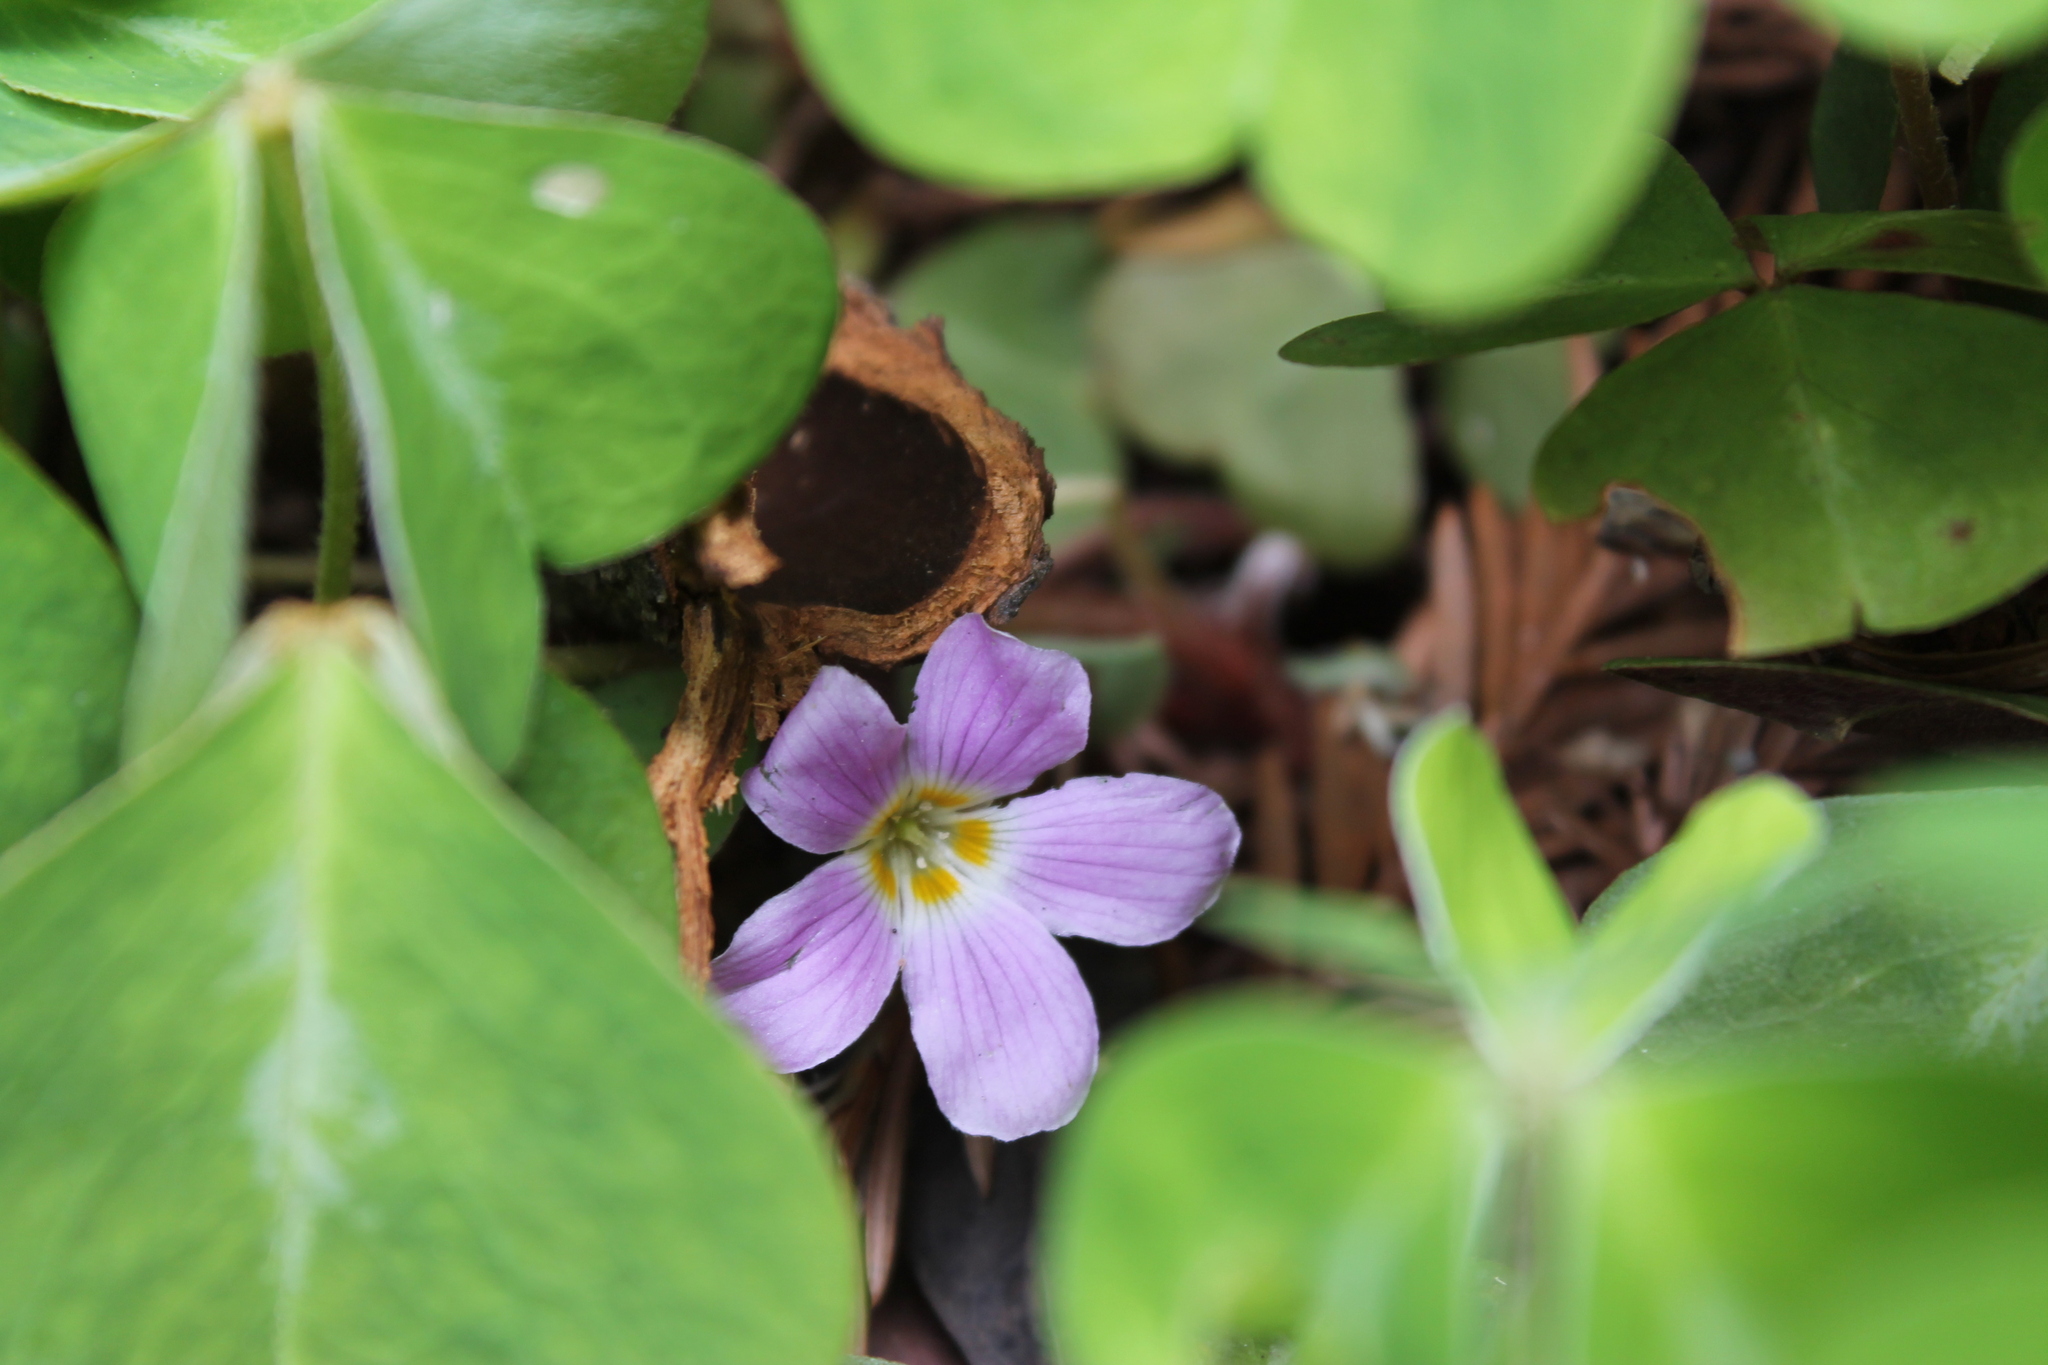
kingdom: Plantae
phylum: Tracheophyta
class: Magnoliopsida
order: Oxalidales
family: Oxalidaceae
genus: Oxalis
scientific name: Oxalis oregana
